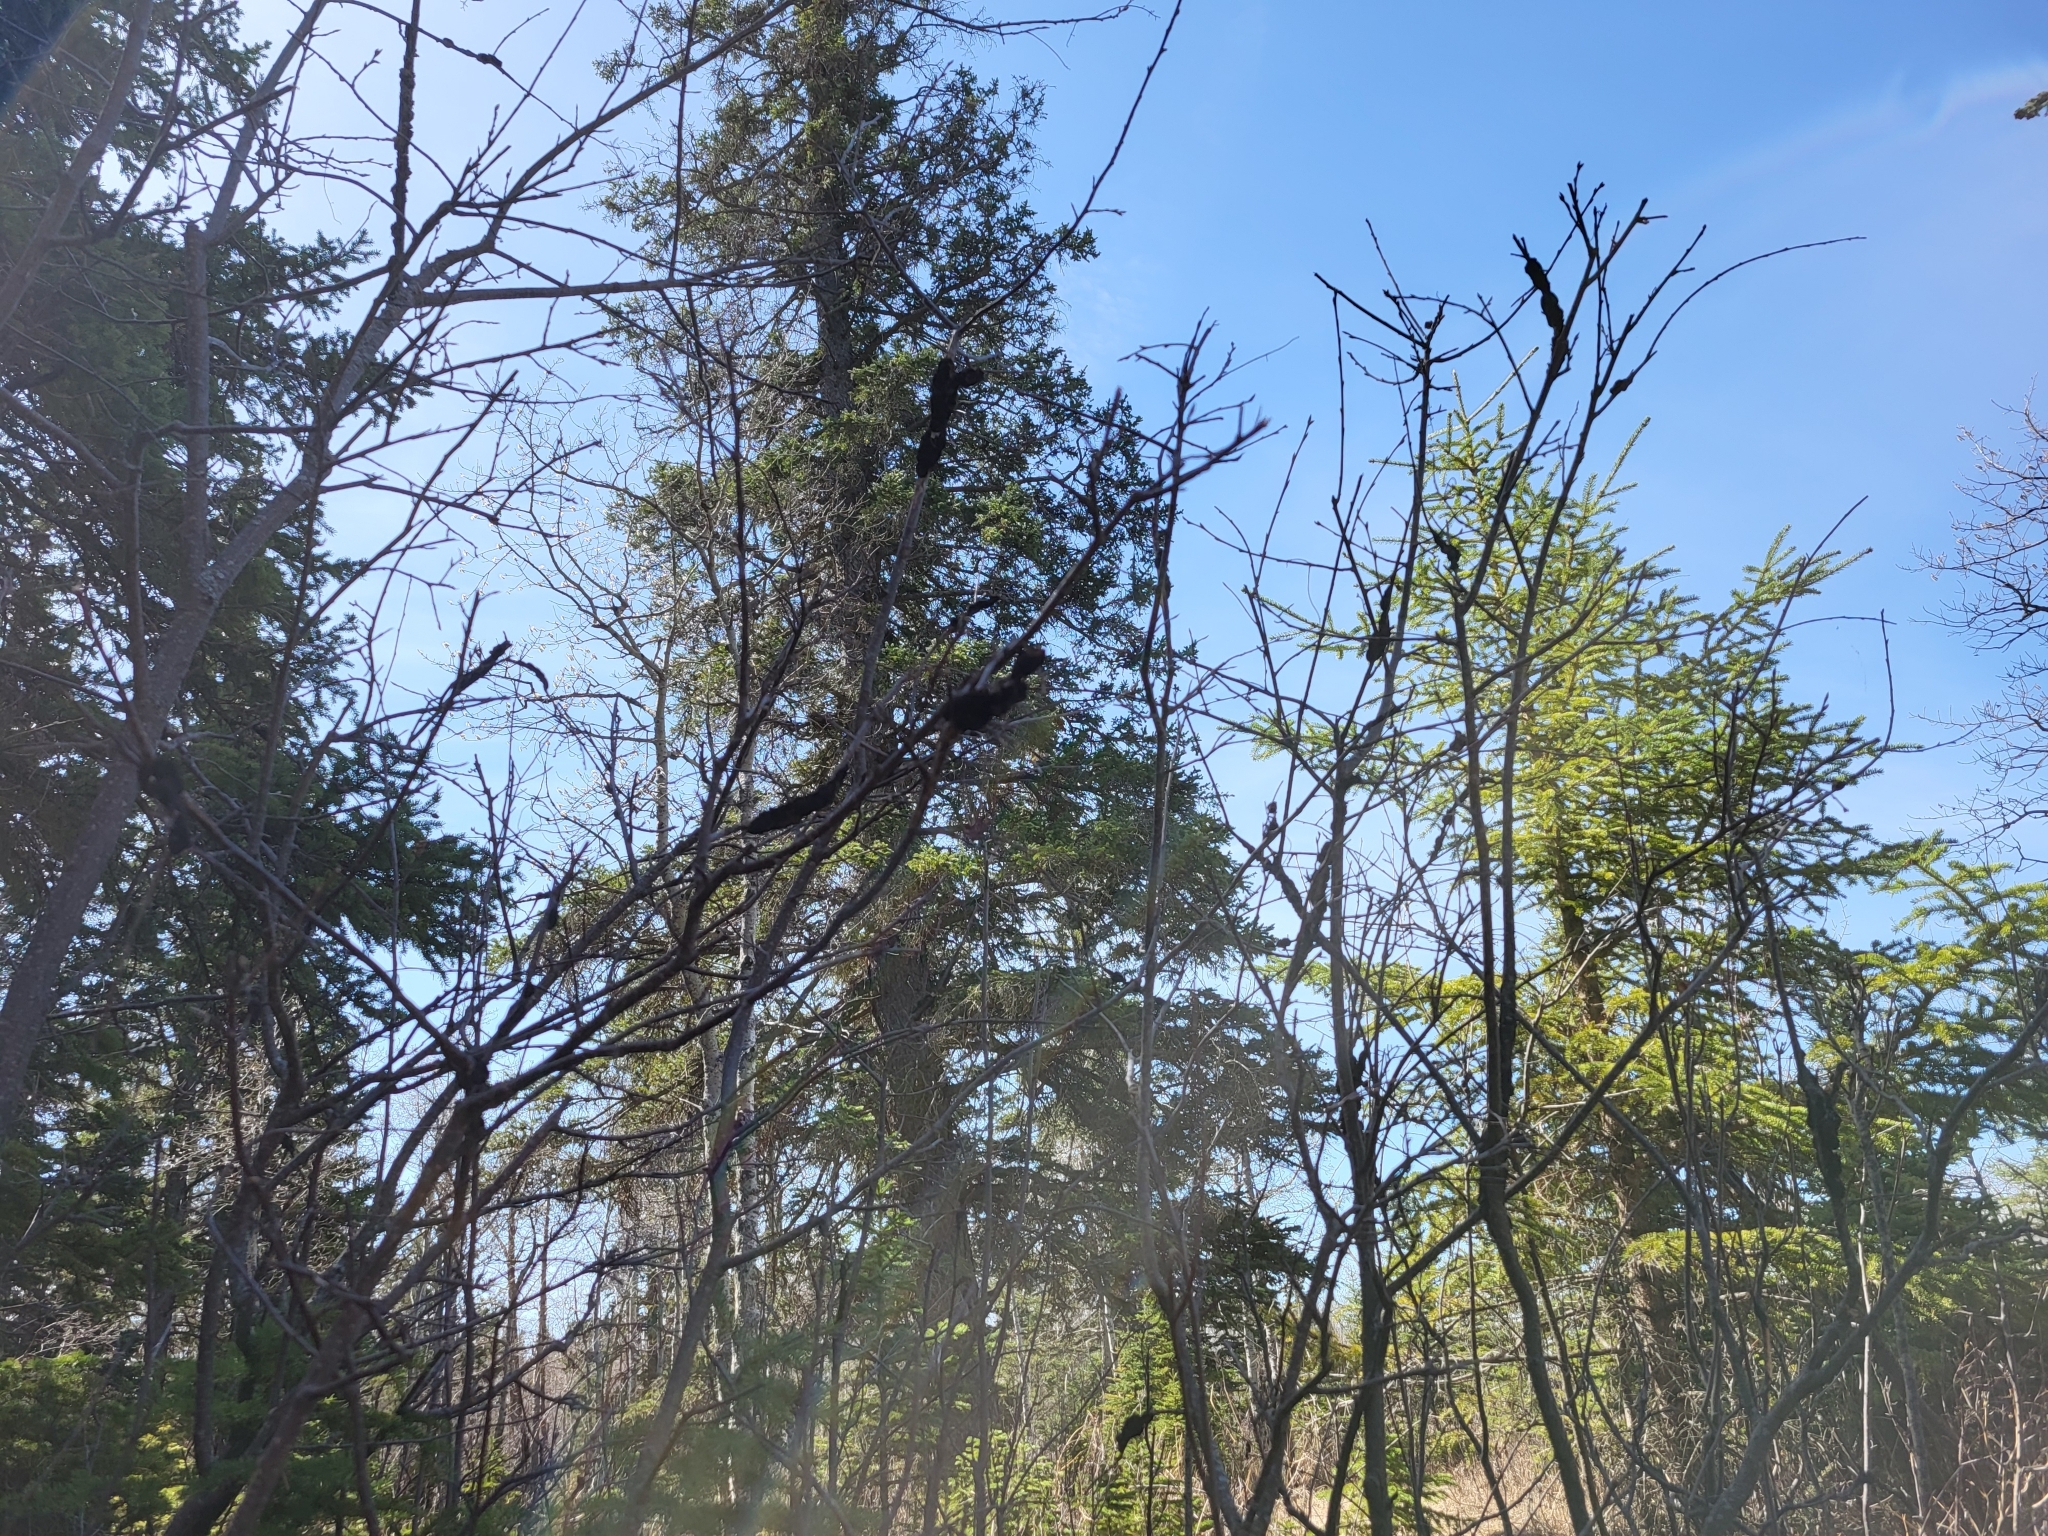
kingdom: Fungi
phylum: Ascomycota
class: Dothideomycetes
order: Venturiales
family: Venturiaceae
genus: Apiosporina
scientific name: Apiosporina morbosa
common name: Black knot
